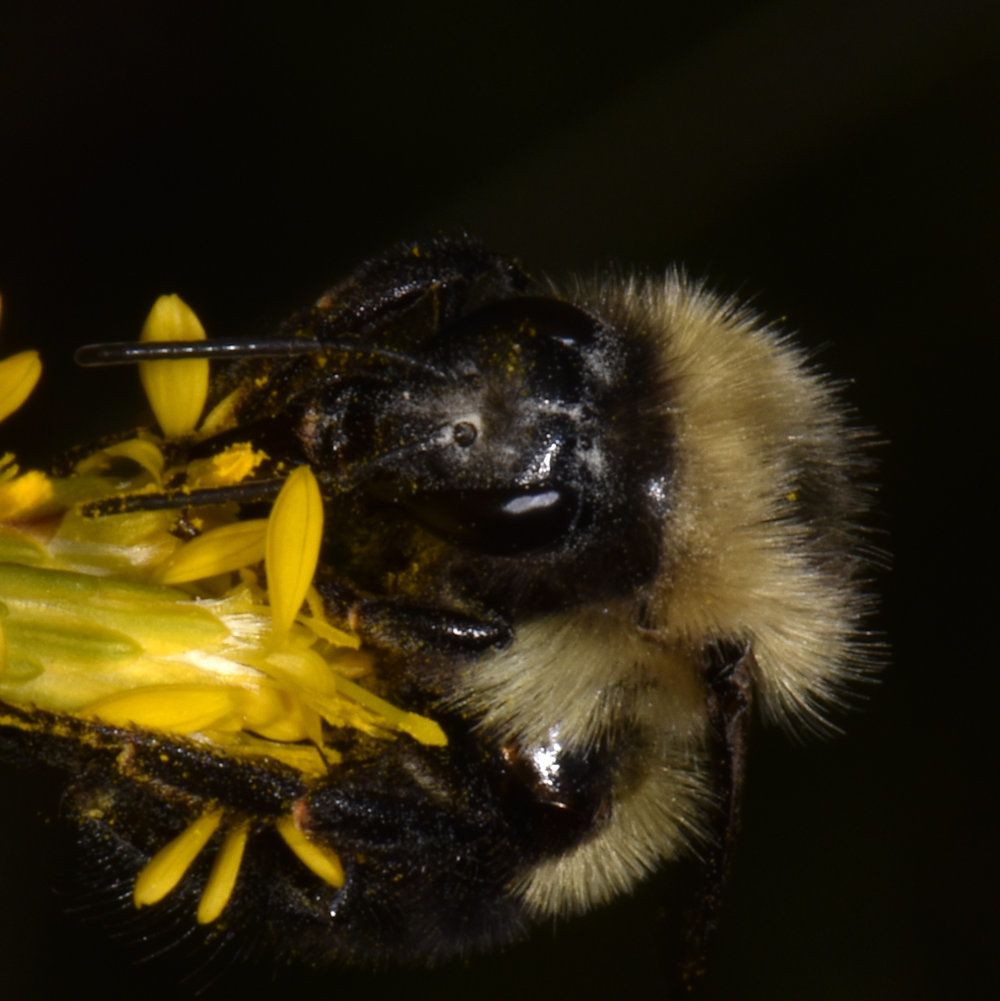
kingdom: Animalia
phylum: Arthropoda
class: Insecta
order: Hymenoptera
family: Apidae
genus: Bombus
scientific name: Bombus impatiens
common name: Common eastern bumble bee
